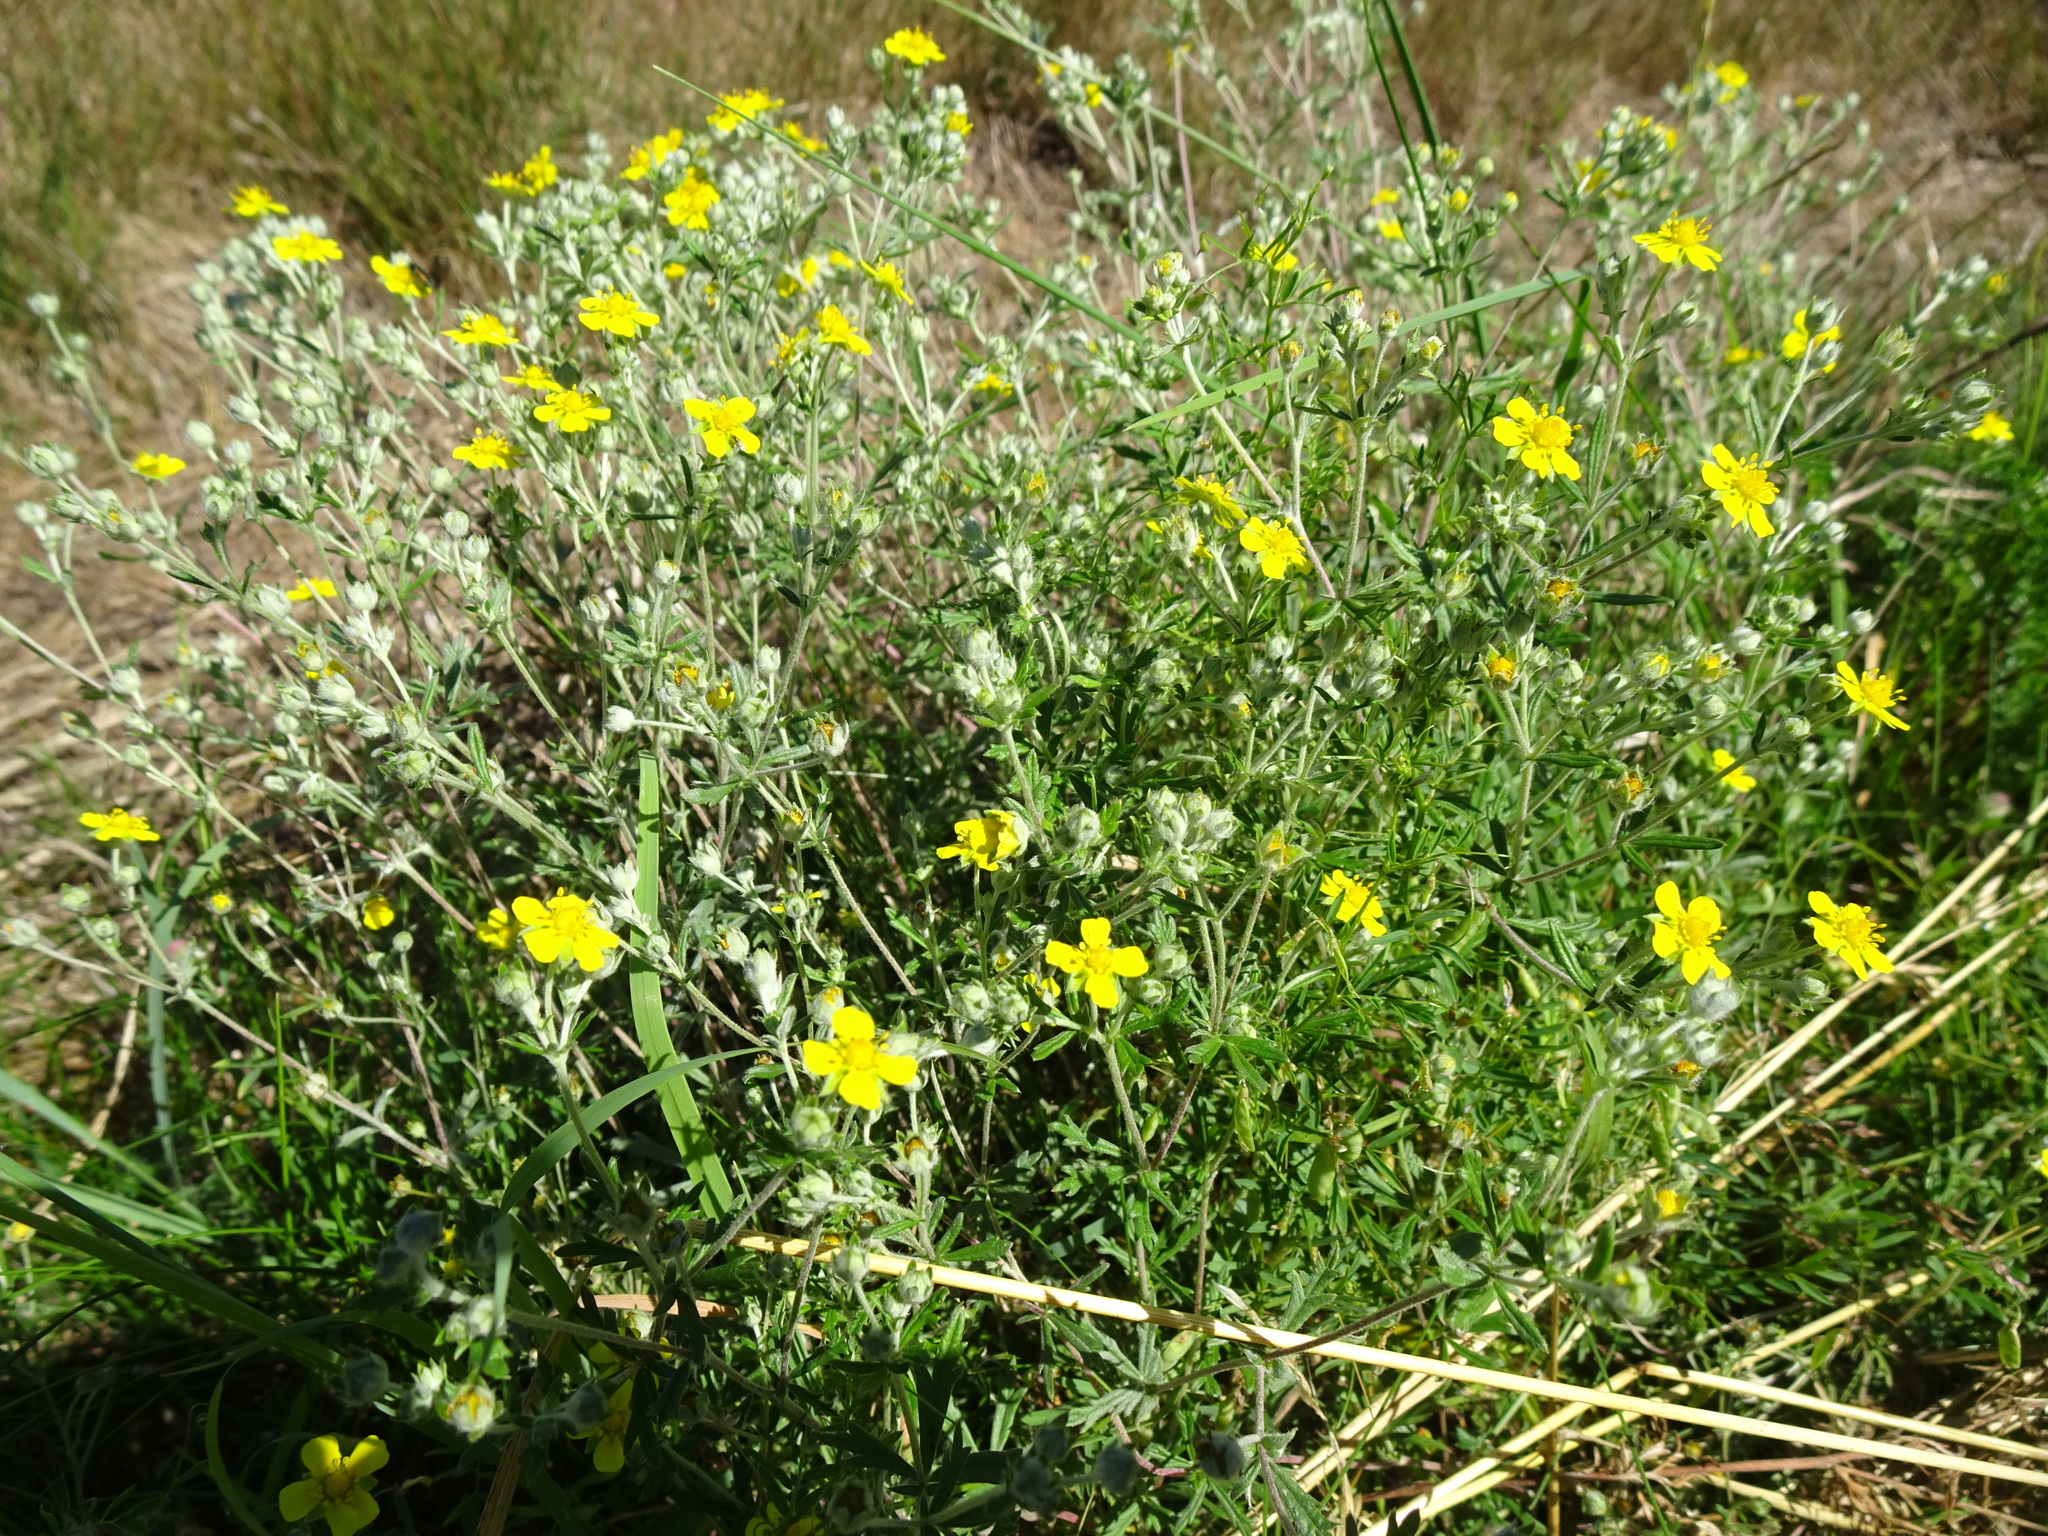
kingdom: Plantae
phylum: Tracheophyta
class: Magnoliopsida
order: Rosales
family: Rosaceae
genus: Potentilla
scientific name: Potentilla argentea
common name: Hoary cinquefoil
